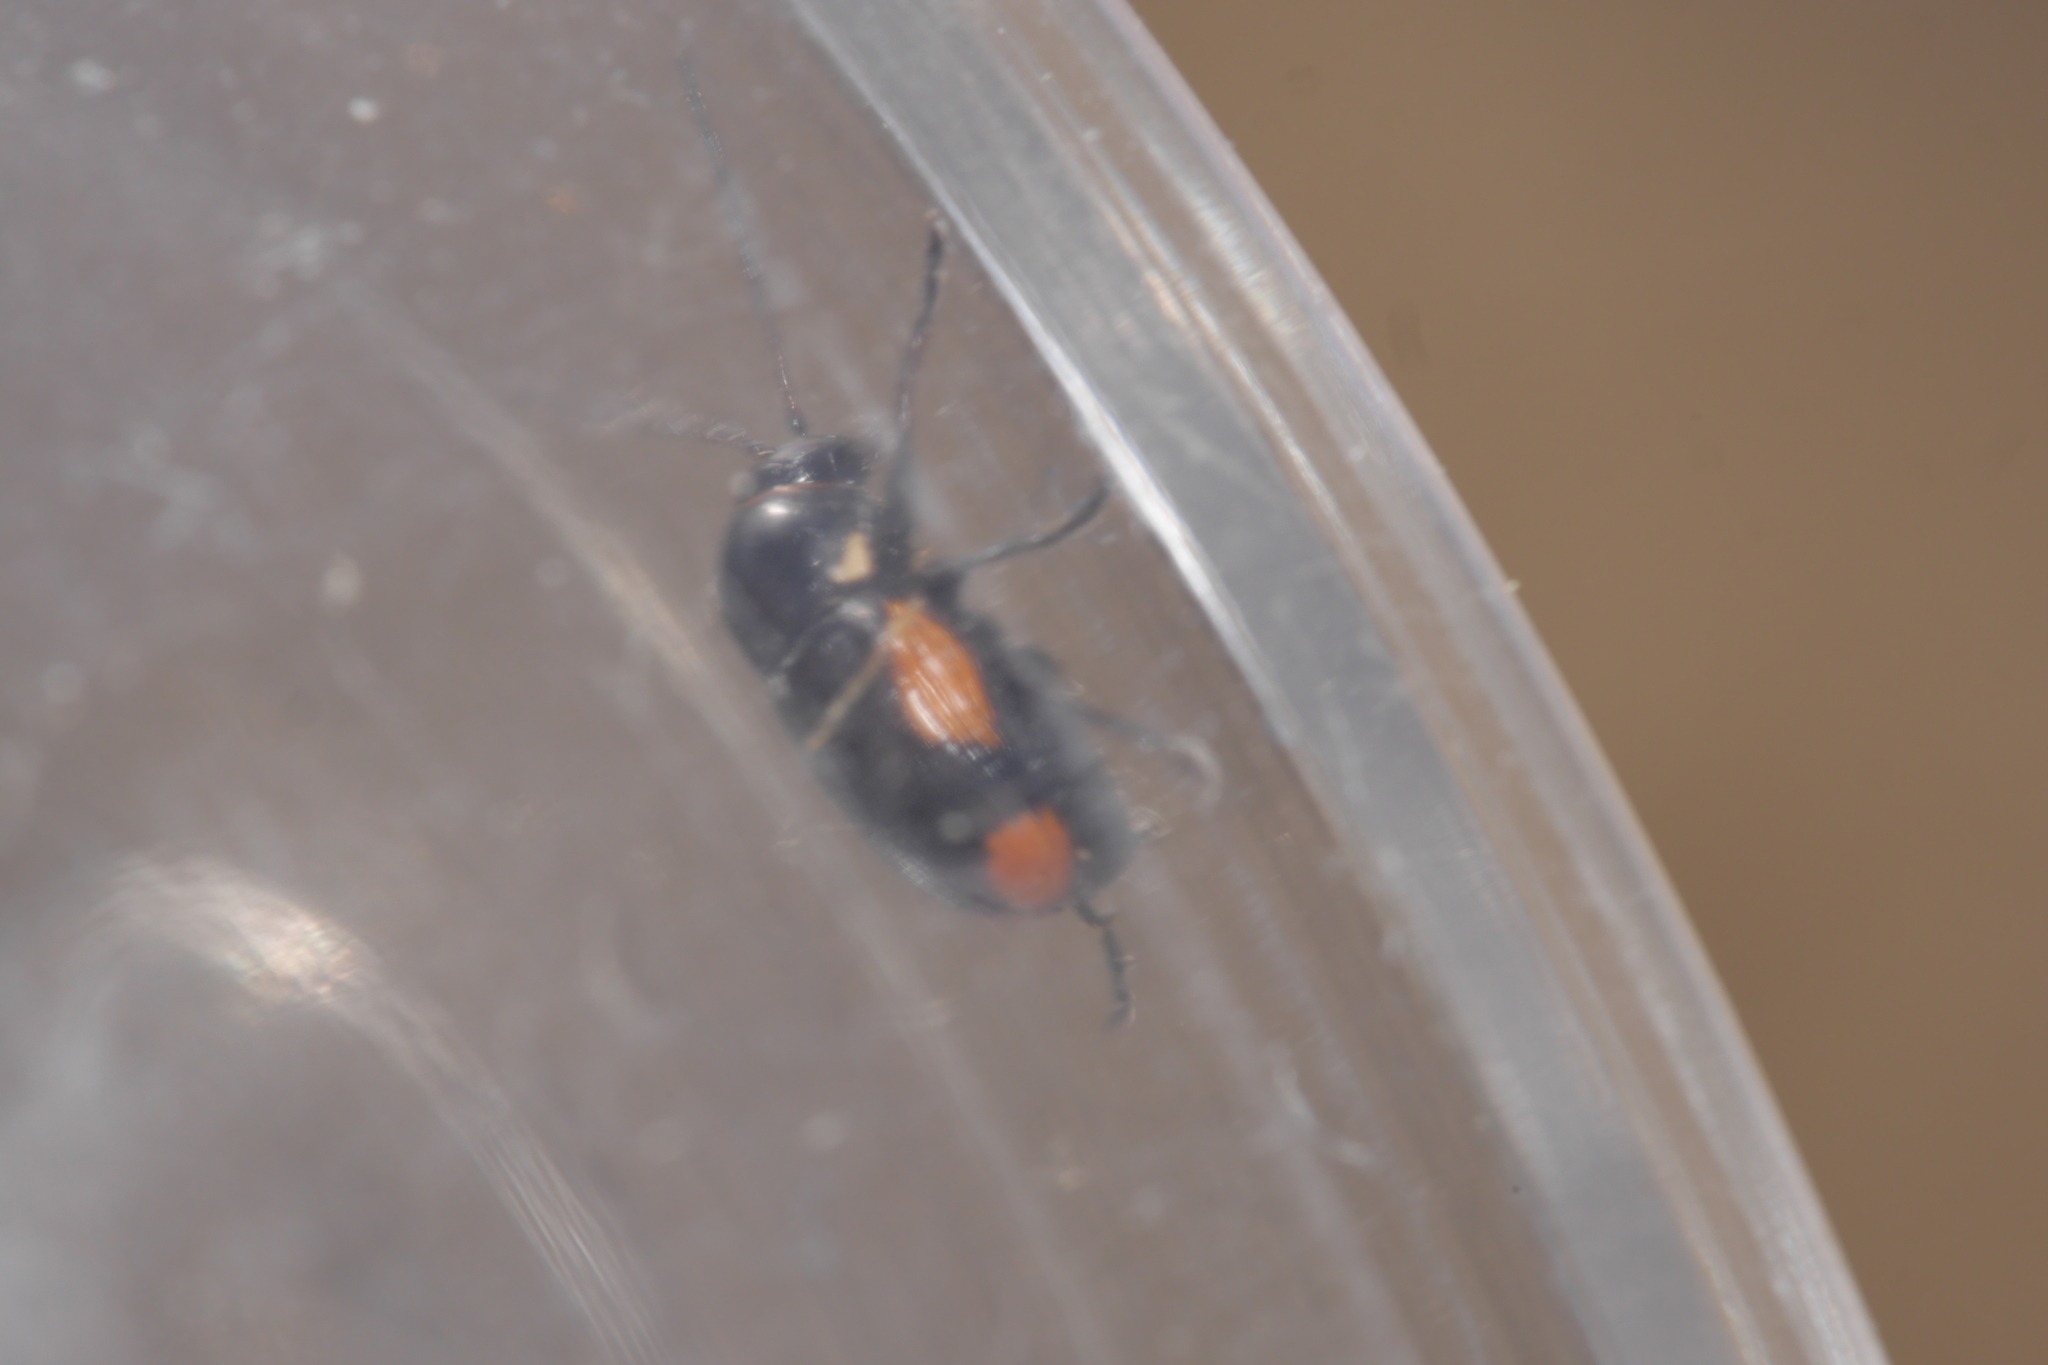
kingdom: Animalia
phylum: Arthropoda
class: Insecta
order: Coleoptera
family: Chrysomelidae
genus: Cryptocephalus
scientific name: Cryptocephalus moraei
